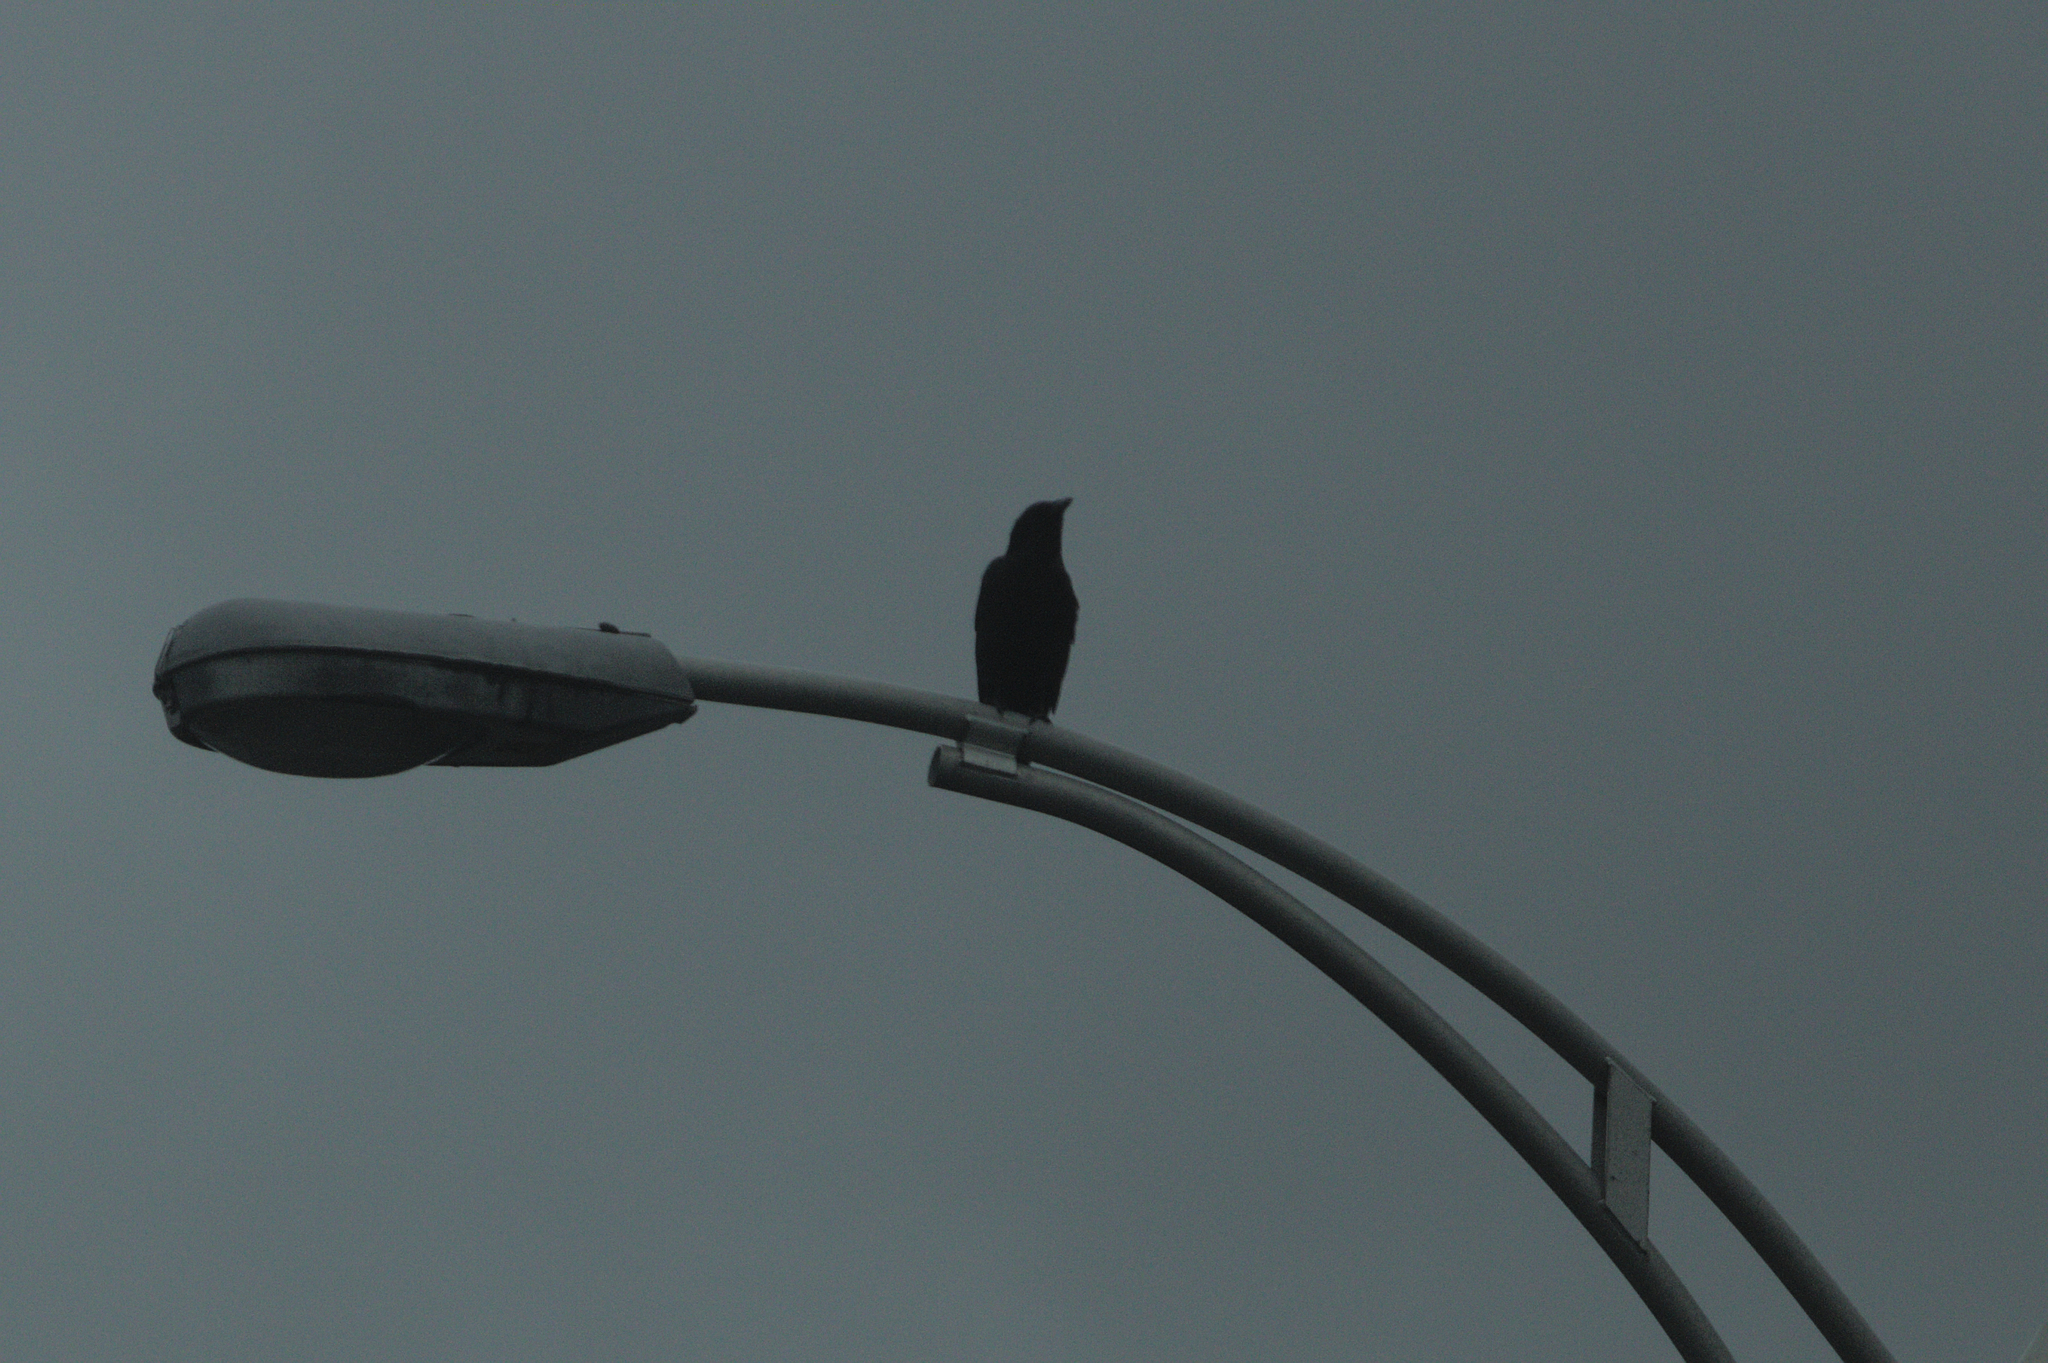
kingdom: Animalia
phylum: Chordata
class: Aves
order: Passeriformes
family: Corvidae
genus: Corvus
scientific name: Corvus brachyrhynchos
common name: American crow
